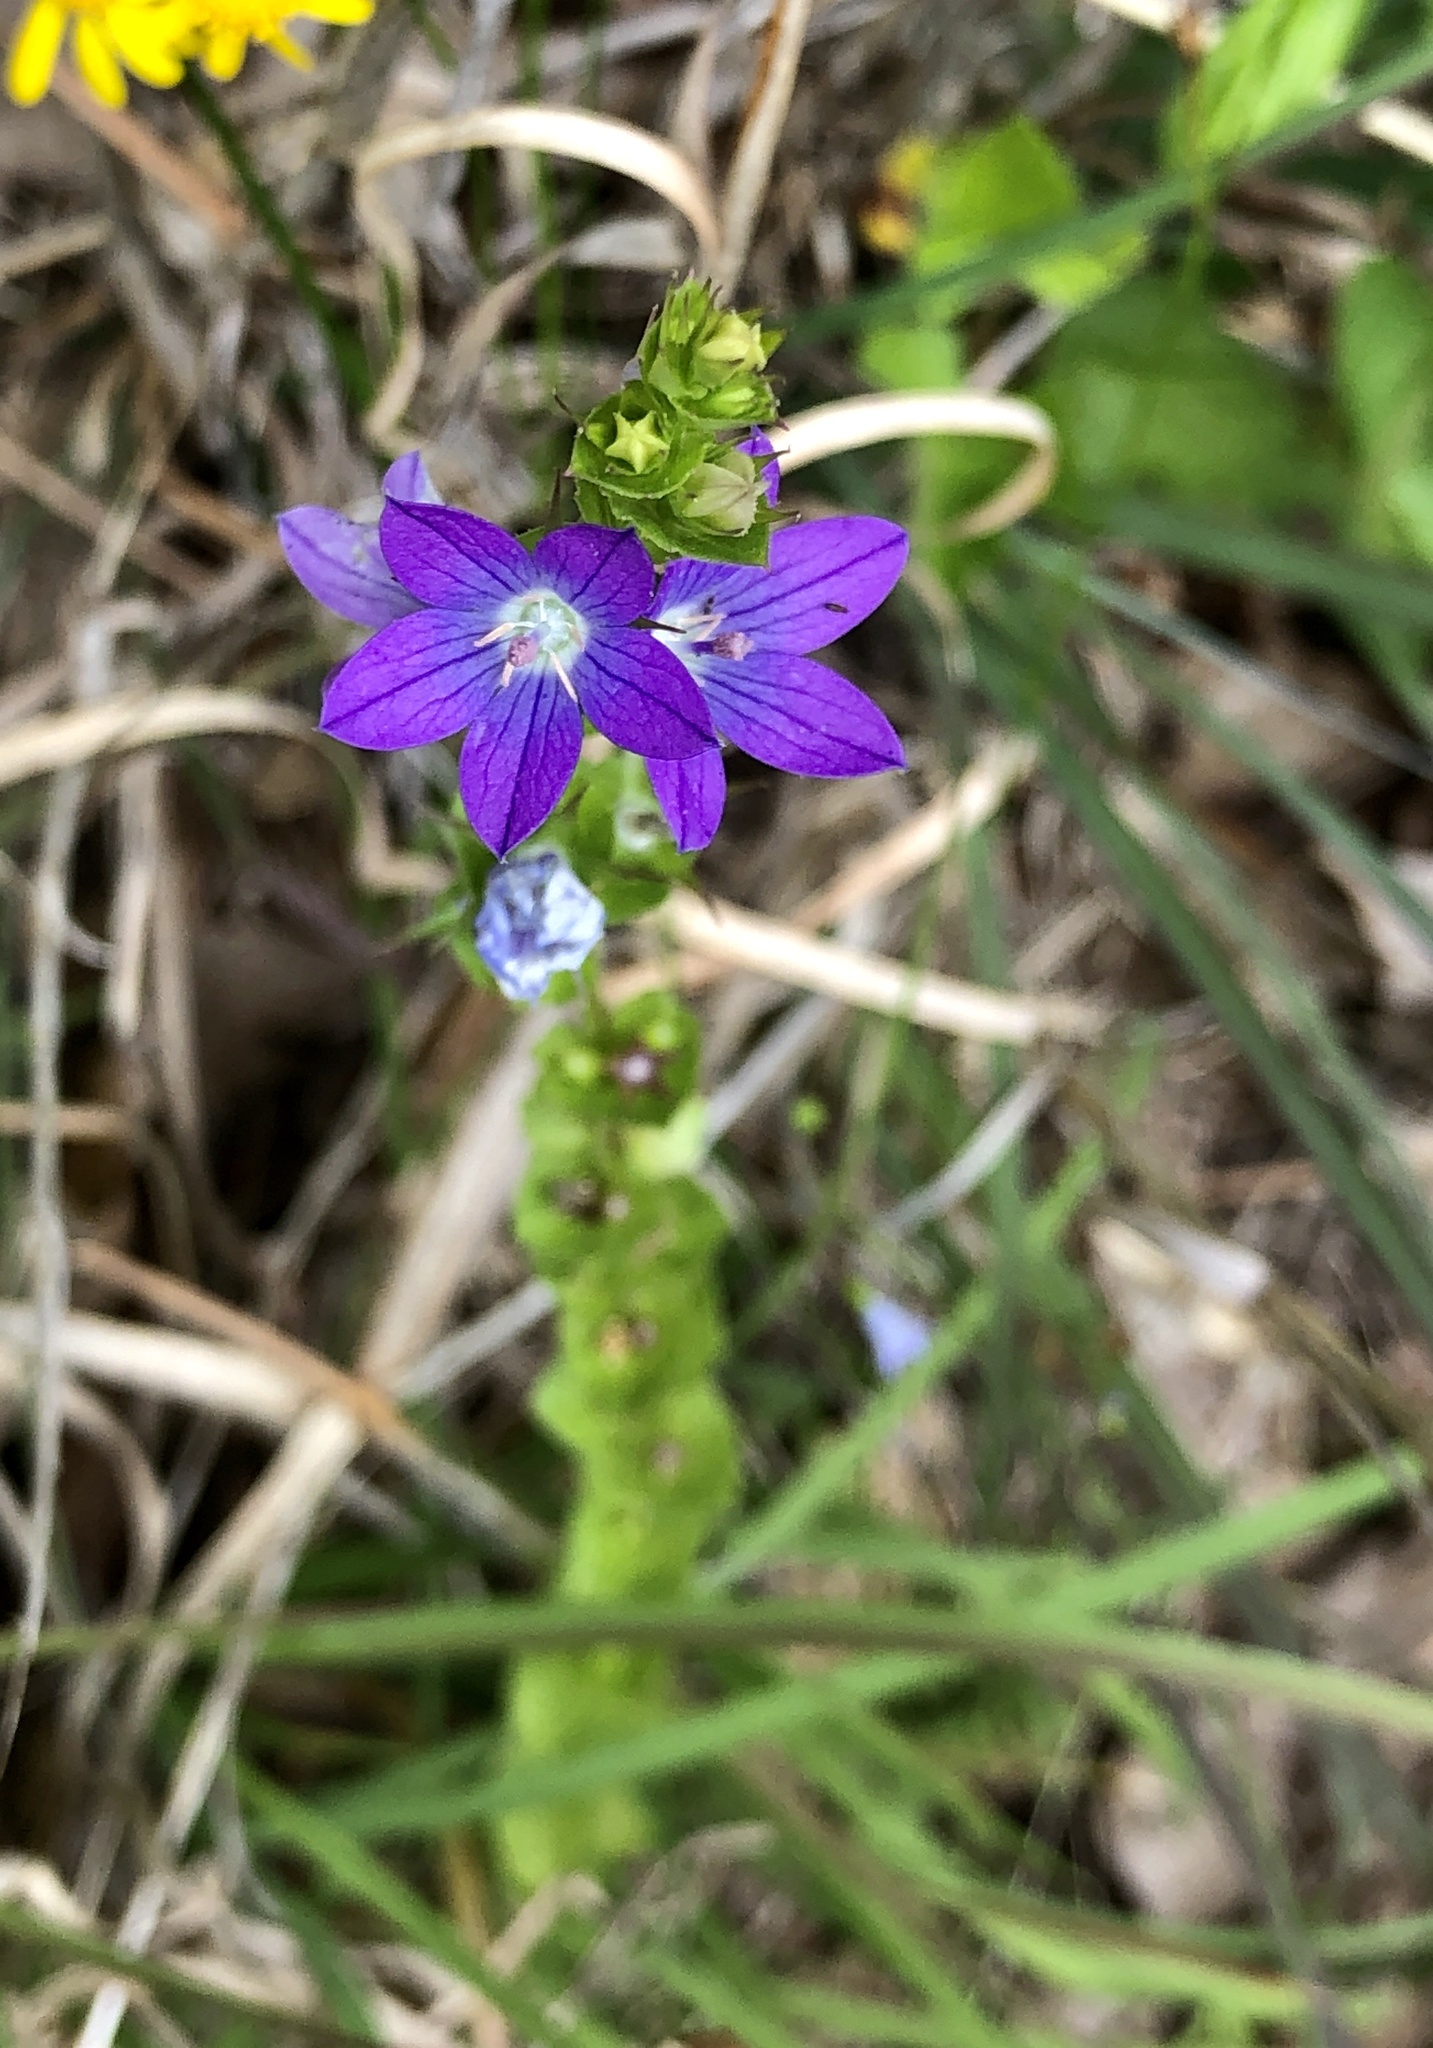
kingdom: Plantae
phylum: Tracheophyta
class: Magnoliopsida
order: Asterales
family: Campanulaceae
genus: Triodanis
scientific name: Triodanis perfoliata
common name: Clasping venus' looking-glass
